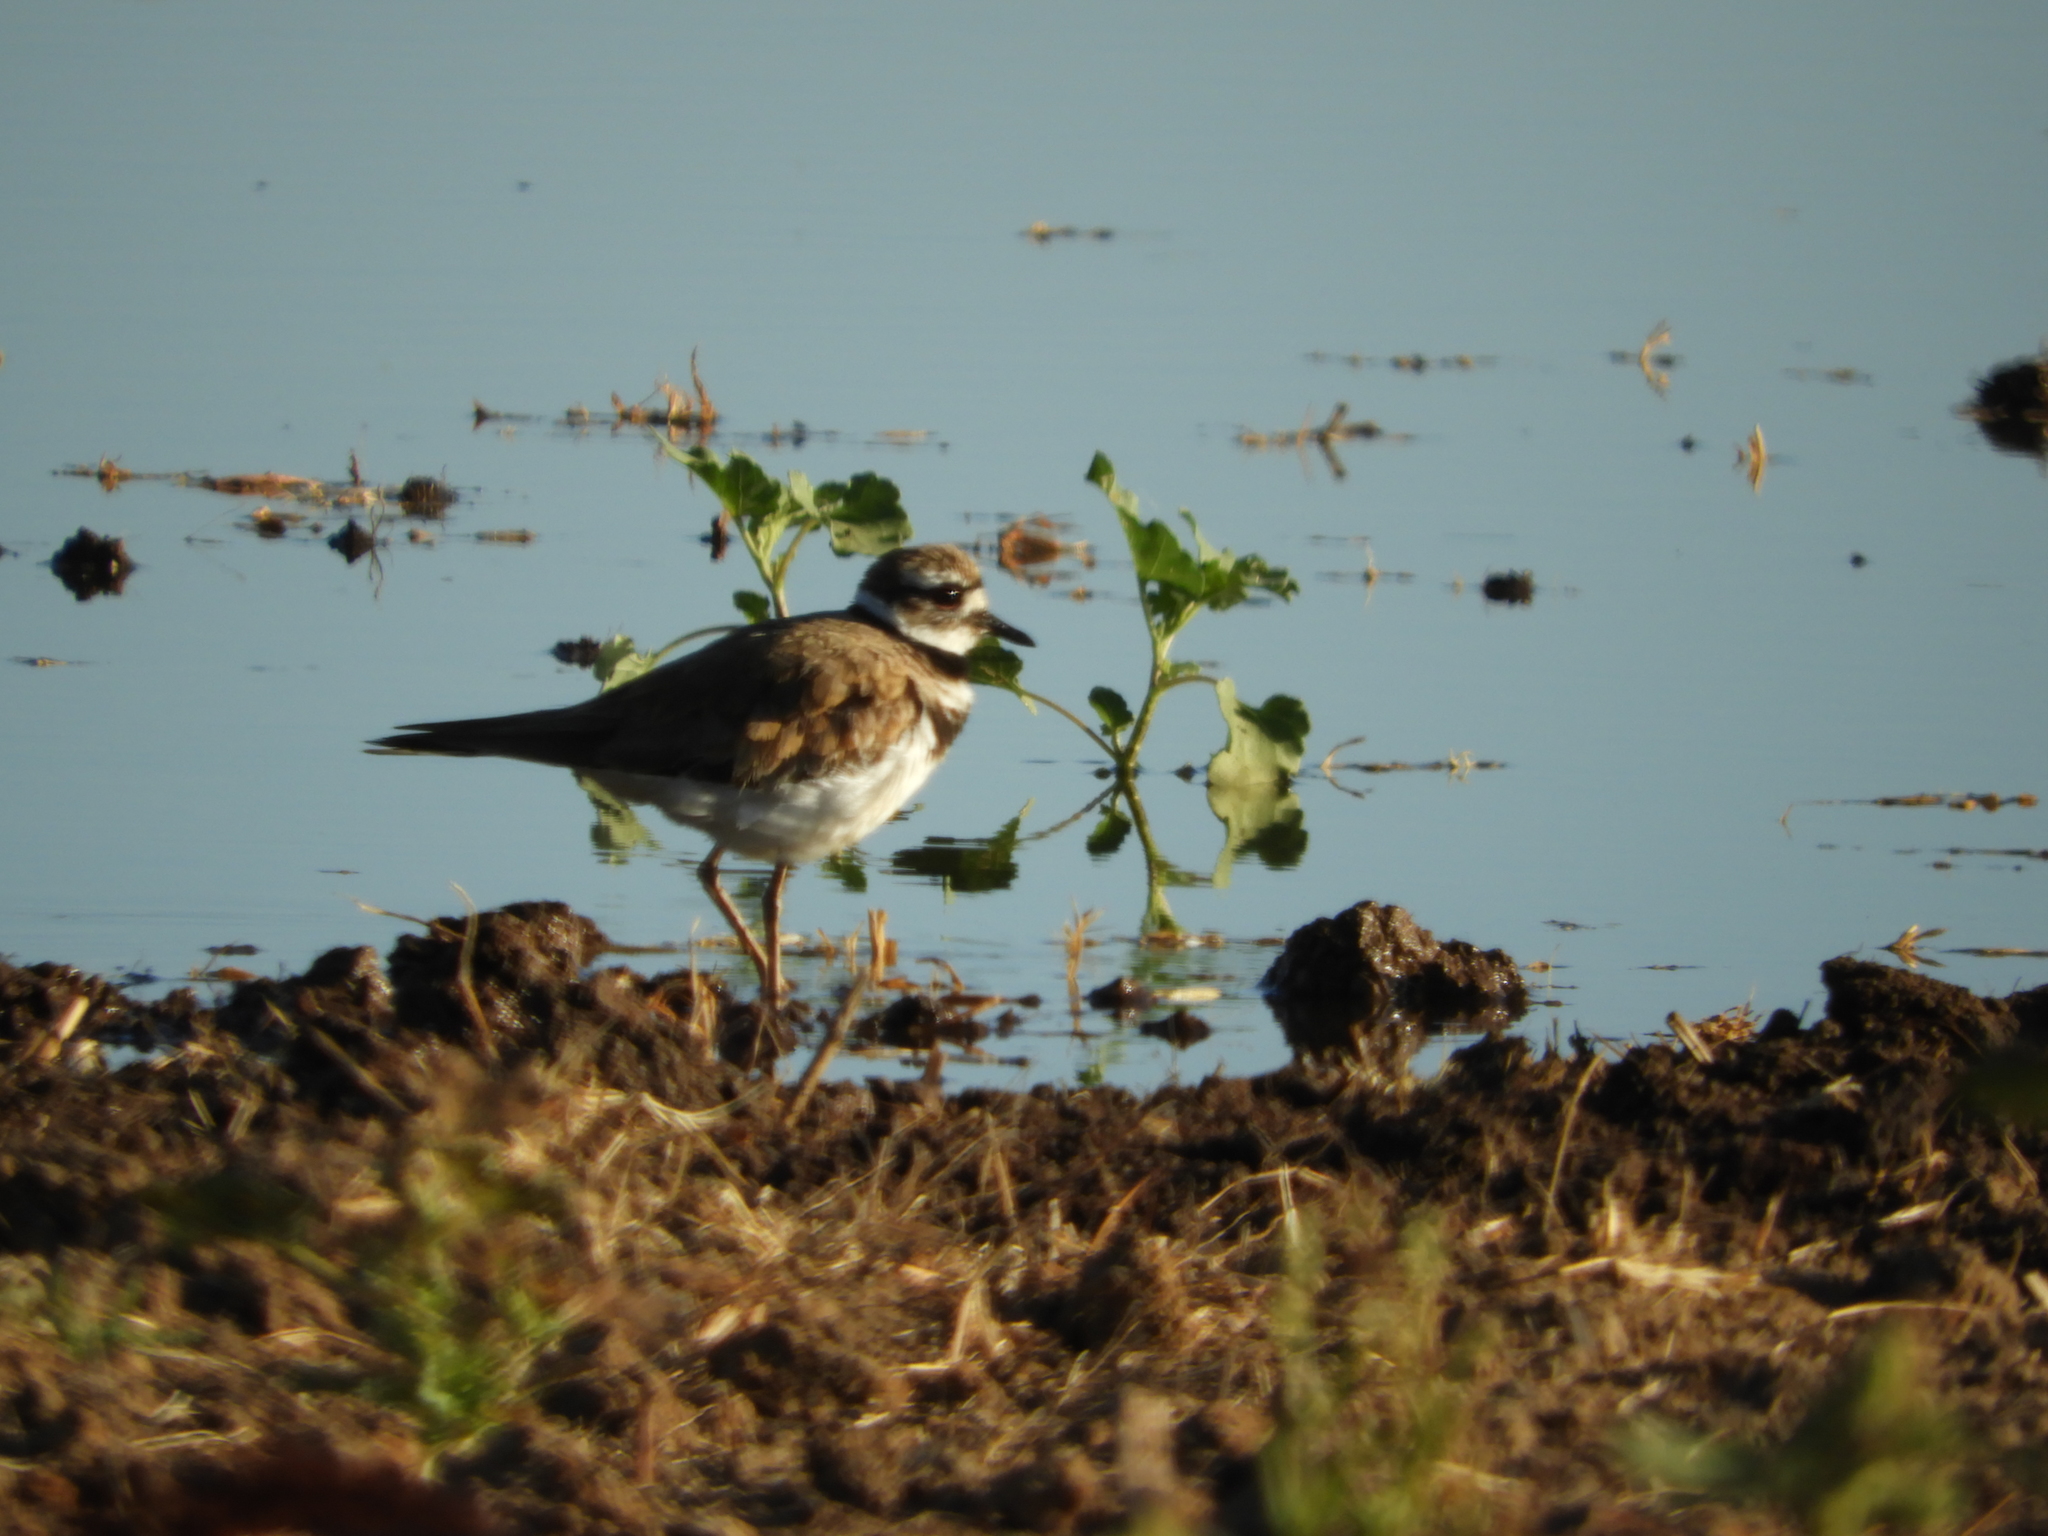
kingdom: Animalia
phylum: Chordata
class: Aves
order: Charadriiformes
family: Charadriidae
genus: Charadrius
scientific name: Charadrius vociferus
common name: Killdeer
